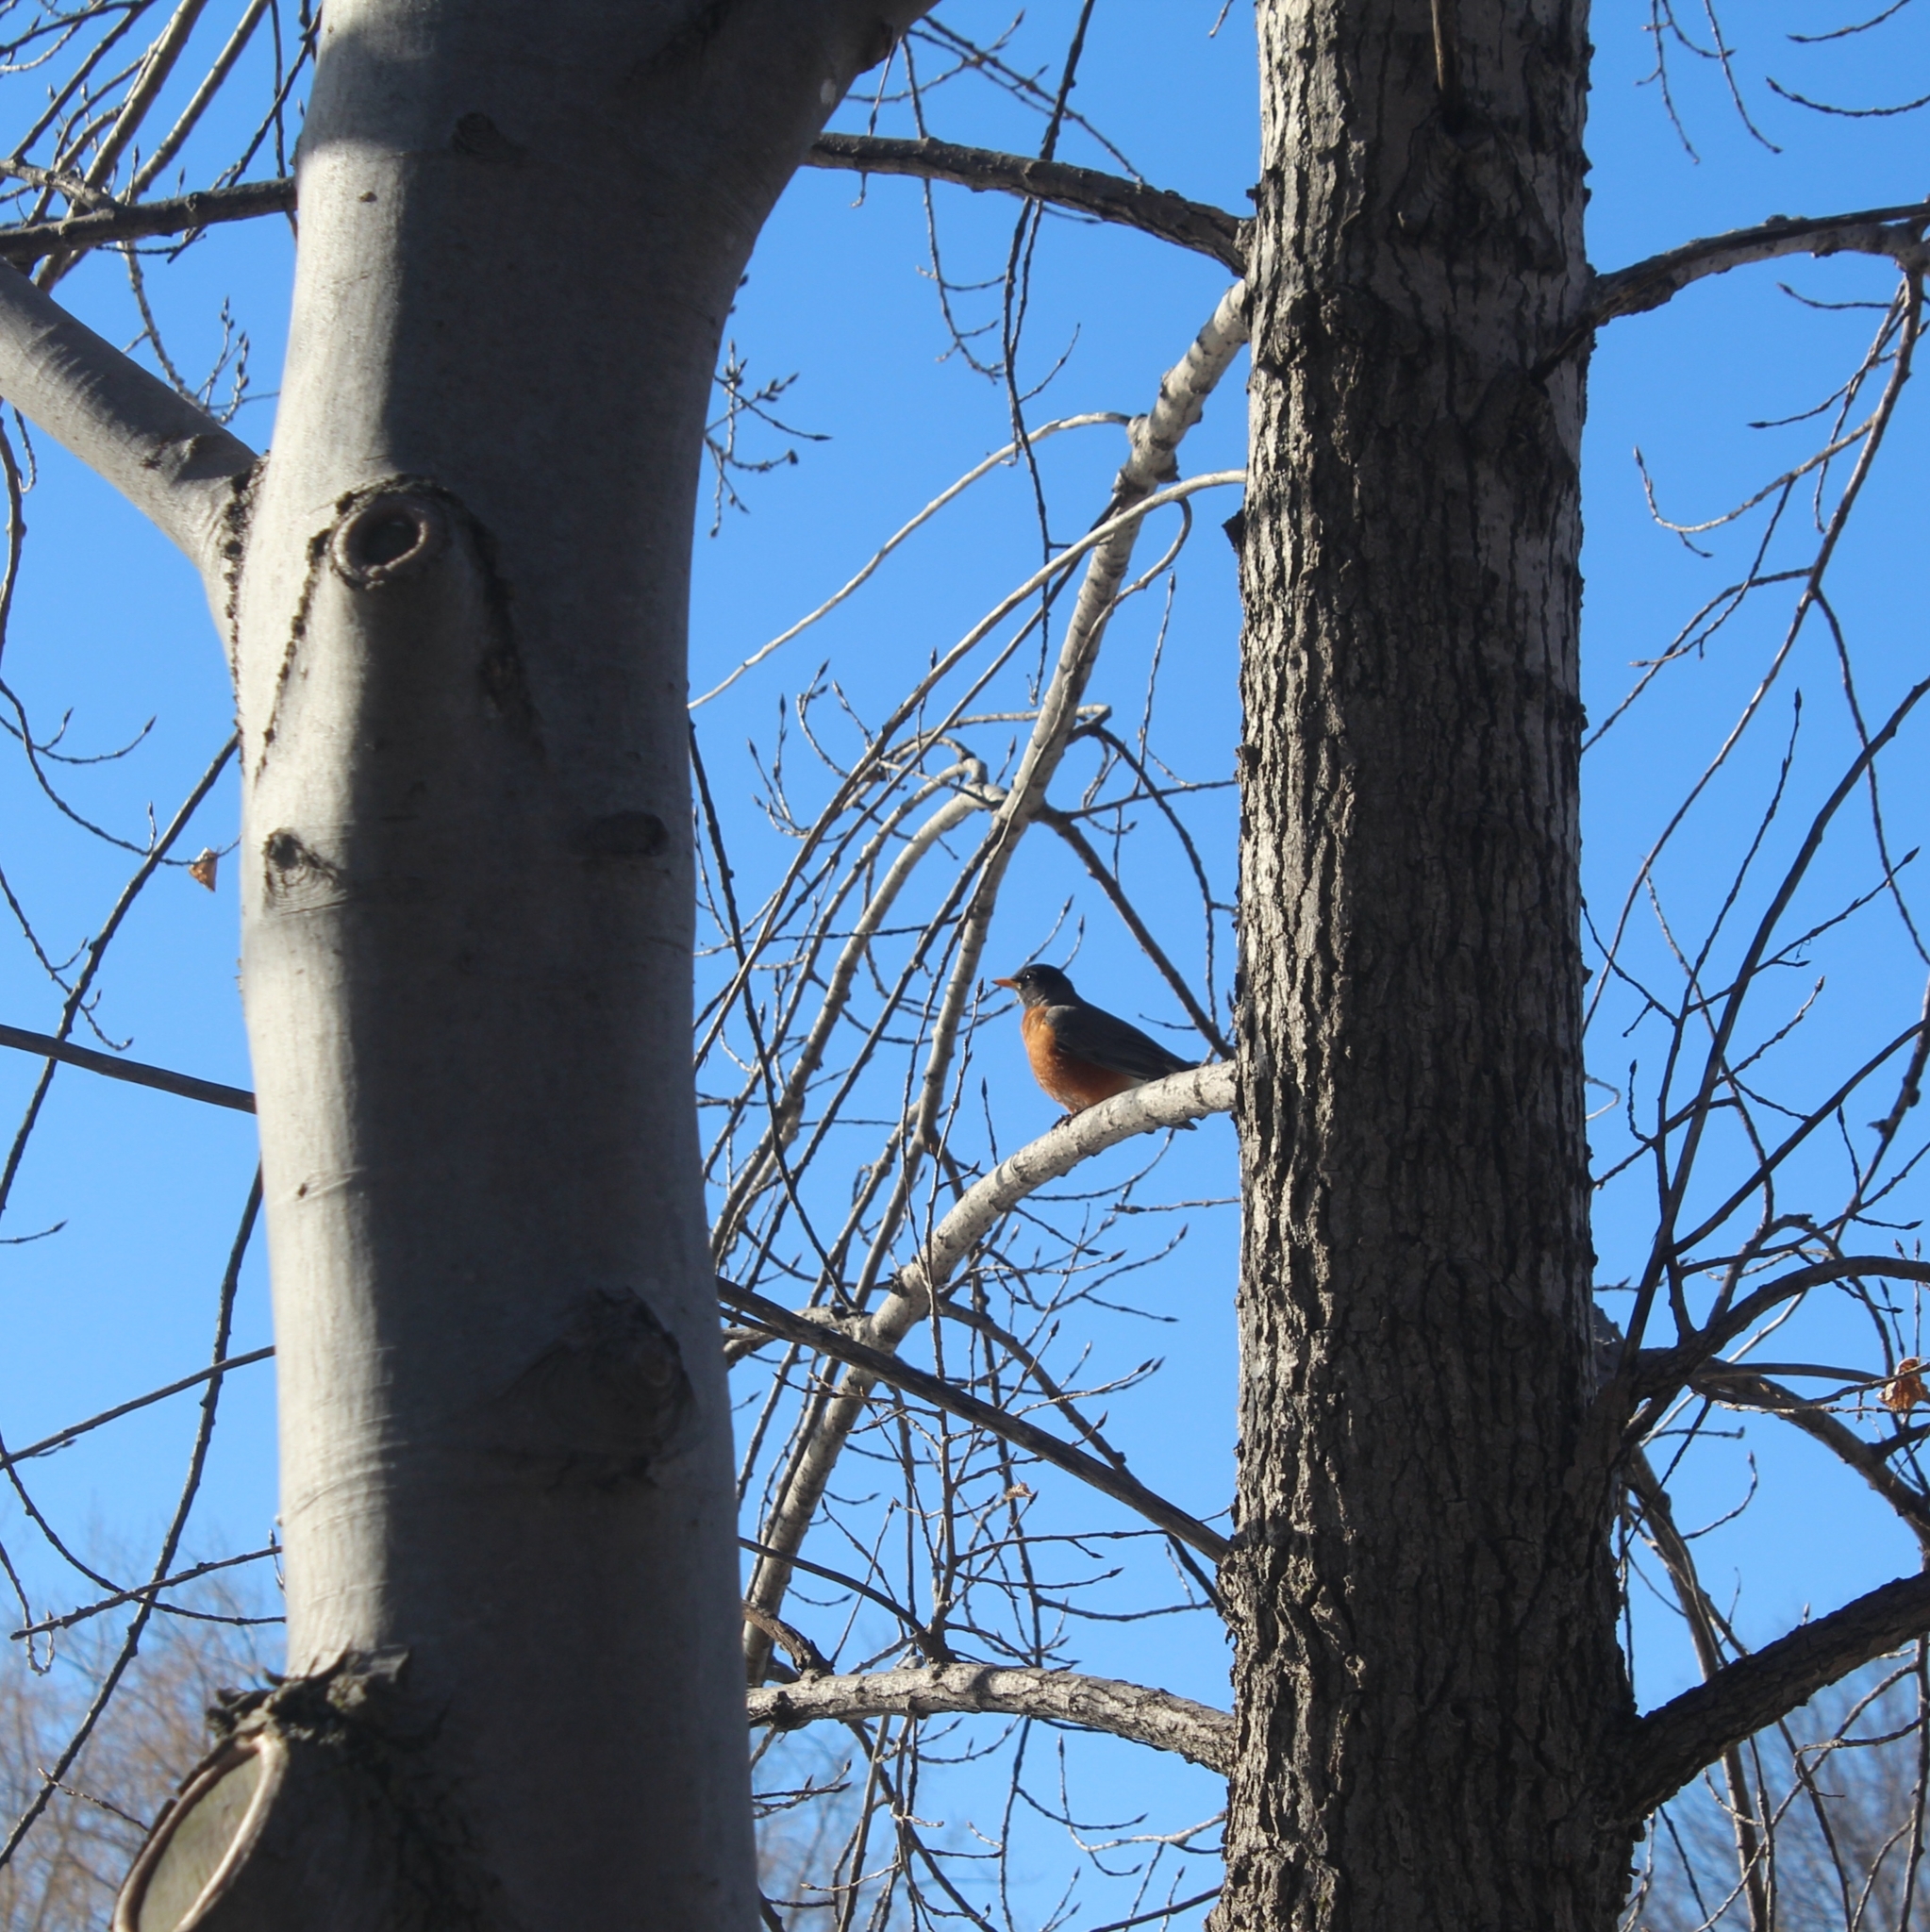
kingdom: Animalia
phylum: Chordata
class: Aves
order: Passeriformes
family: Turdidae
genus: Turdus
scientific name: Turdus migratorius
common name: American robin
